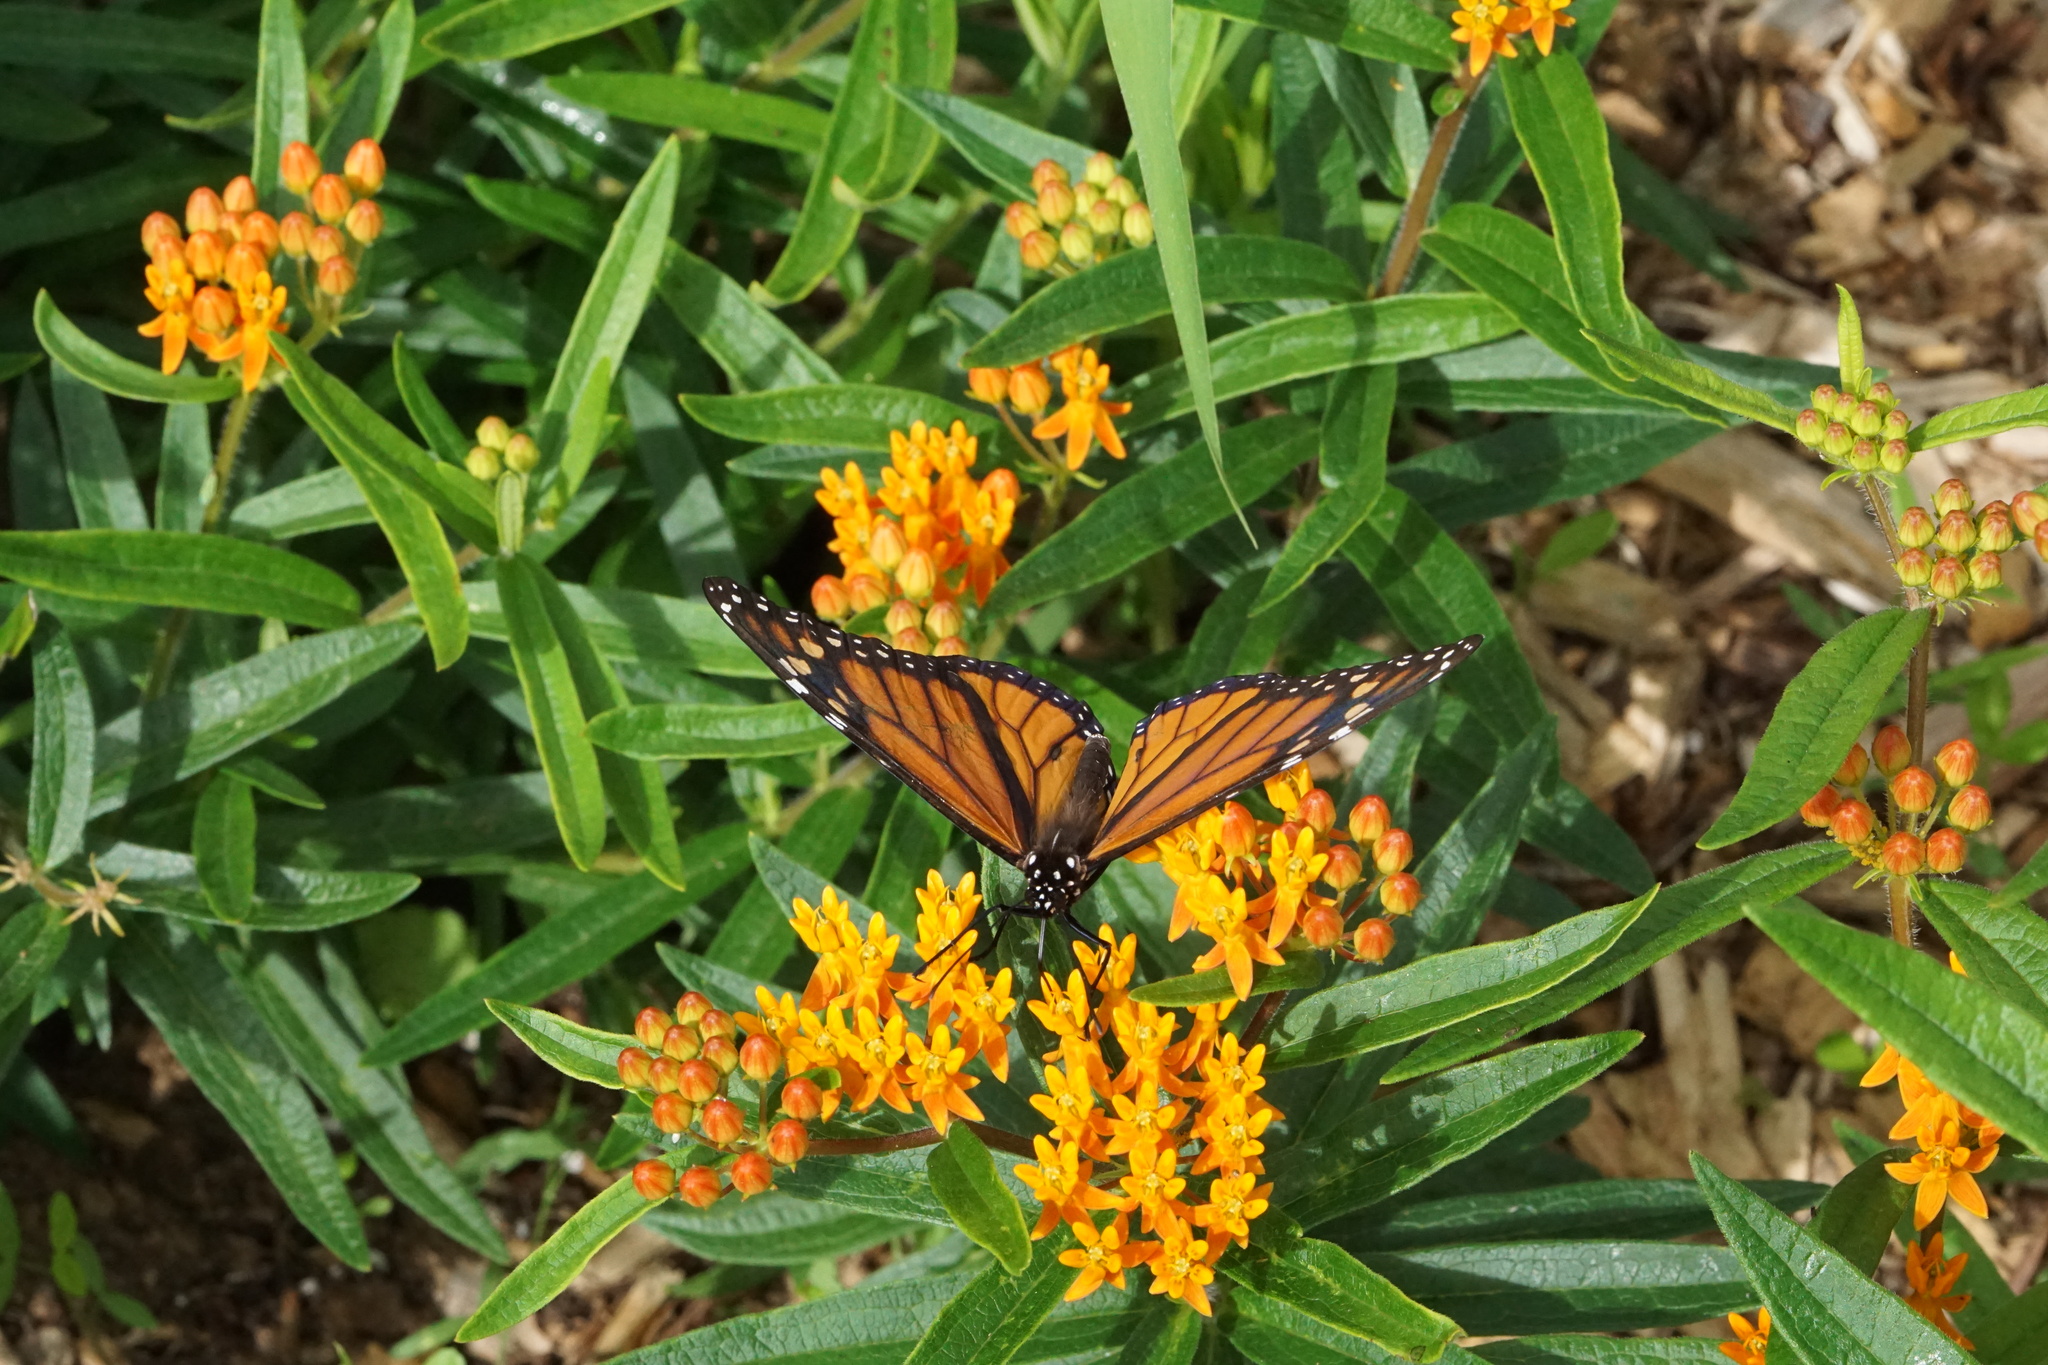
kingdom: Animalia
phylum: Arthropoda
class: Insecta
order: Lepidoptera
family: Nymphalidae
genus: Danaus
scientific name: Danaus plexippus
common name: Monarch
